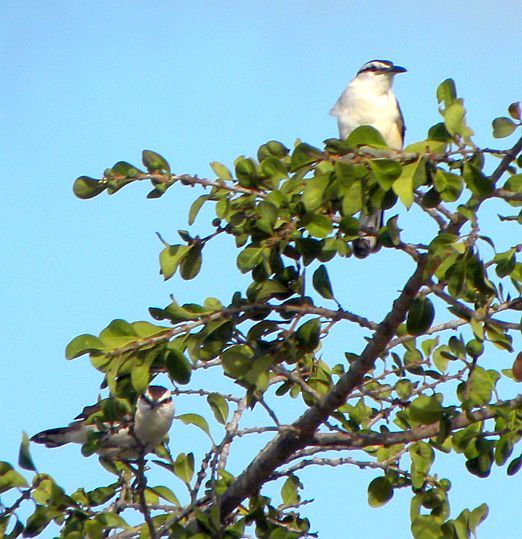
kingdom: Animalia
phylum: Chordata
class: Aves
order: Passeriformes
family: Troglodytidae
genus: Campylorhynchus
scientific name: Campylorhynchus griseus
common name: Bicolored wren
